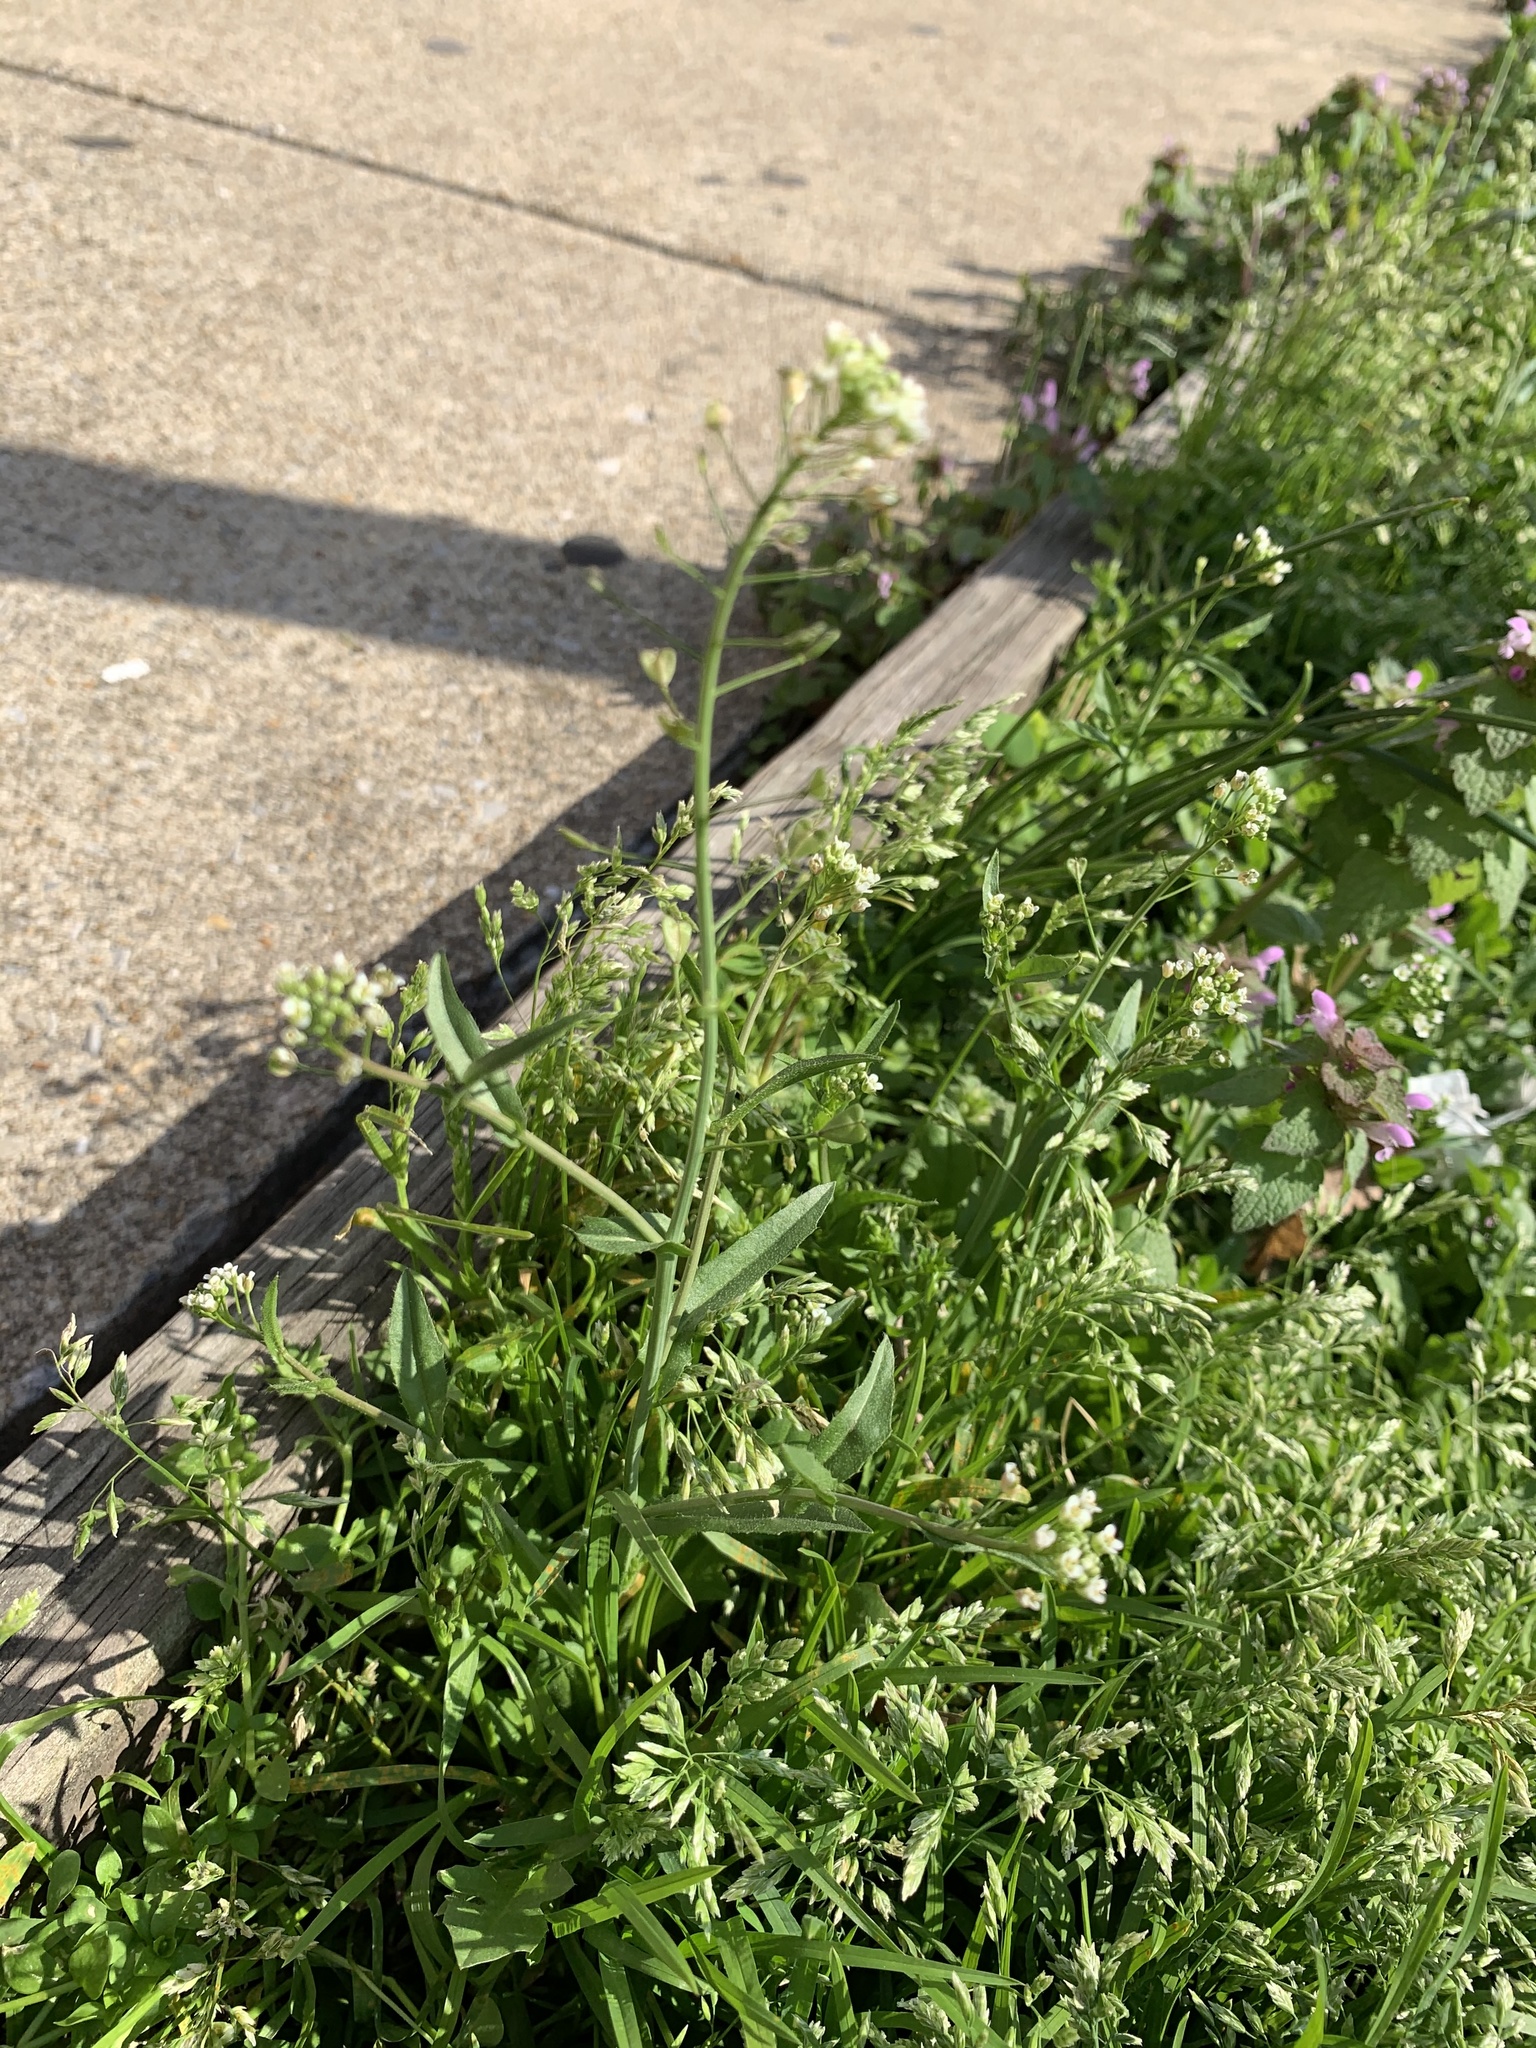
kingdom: Plantae
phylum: Tracheophyta
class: Magnoliopsida
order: Brassicales
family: Brassicaceae
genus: Capsella
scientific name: Capsella bursa-pastoris
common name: Shepherd's purse
